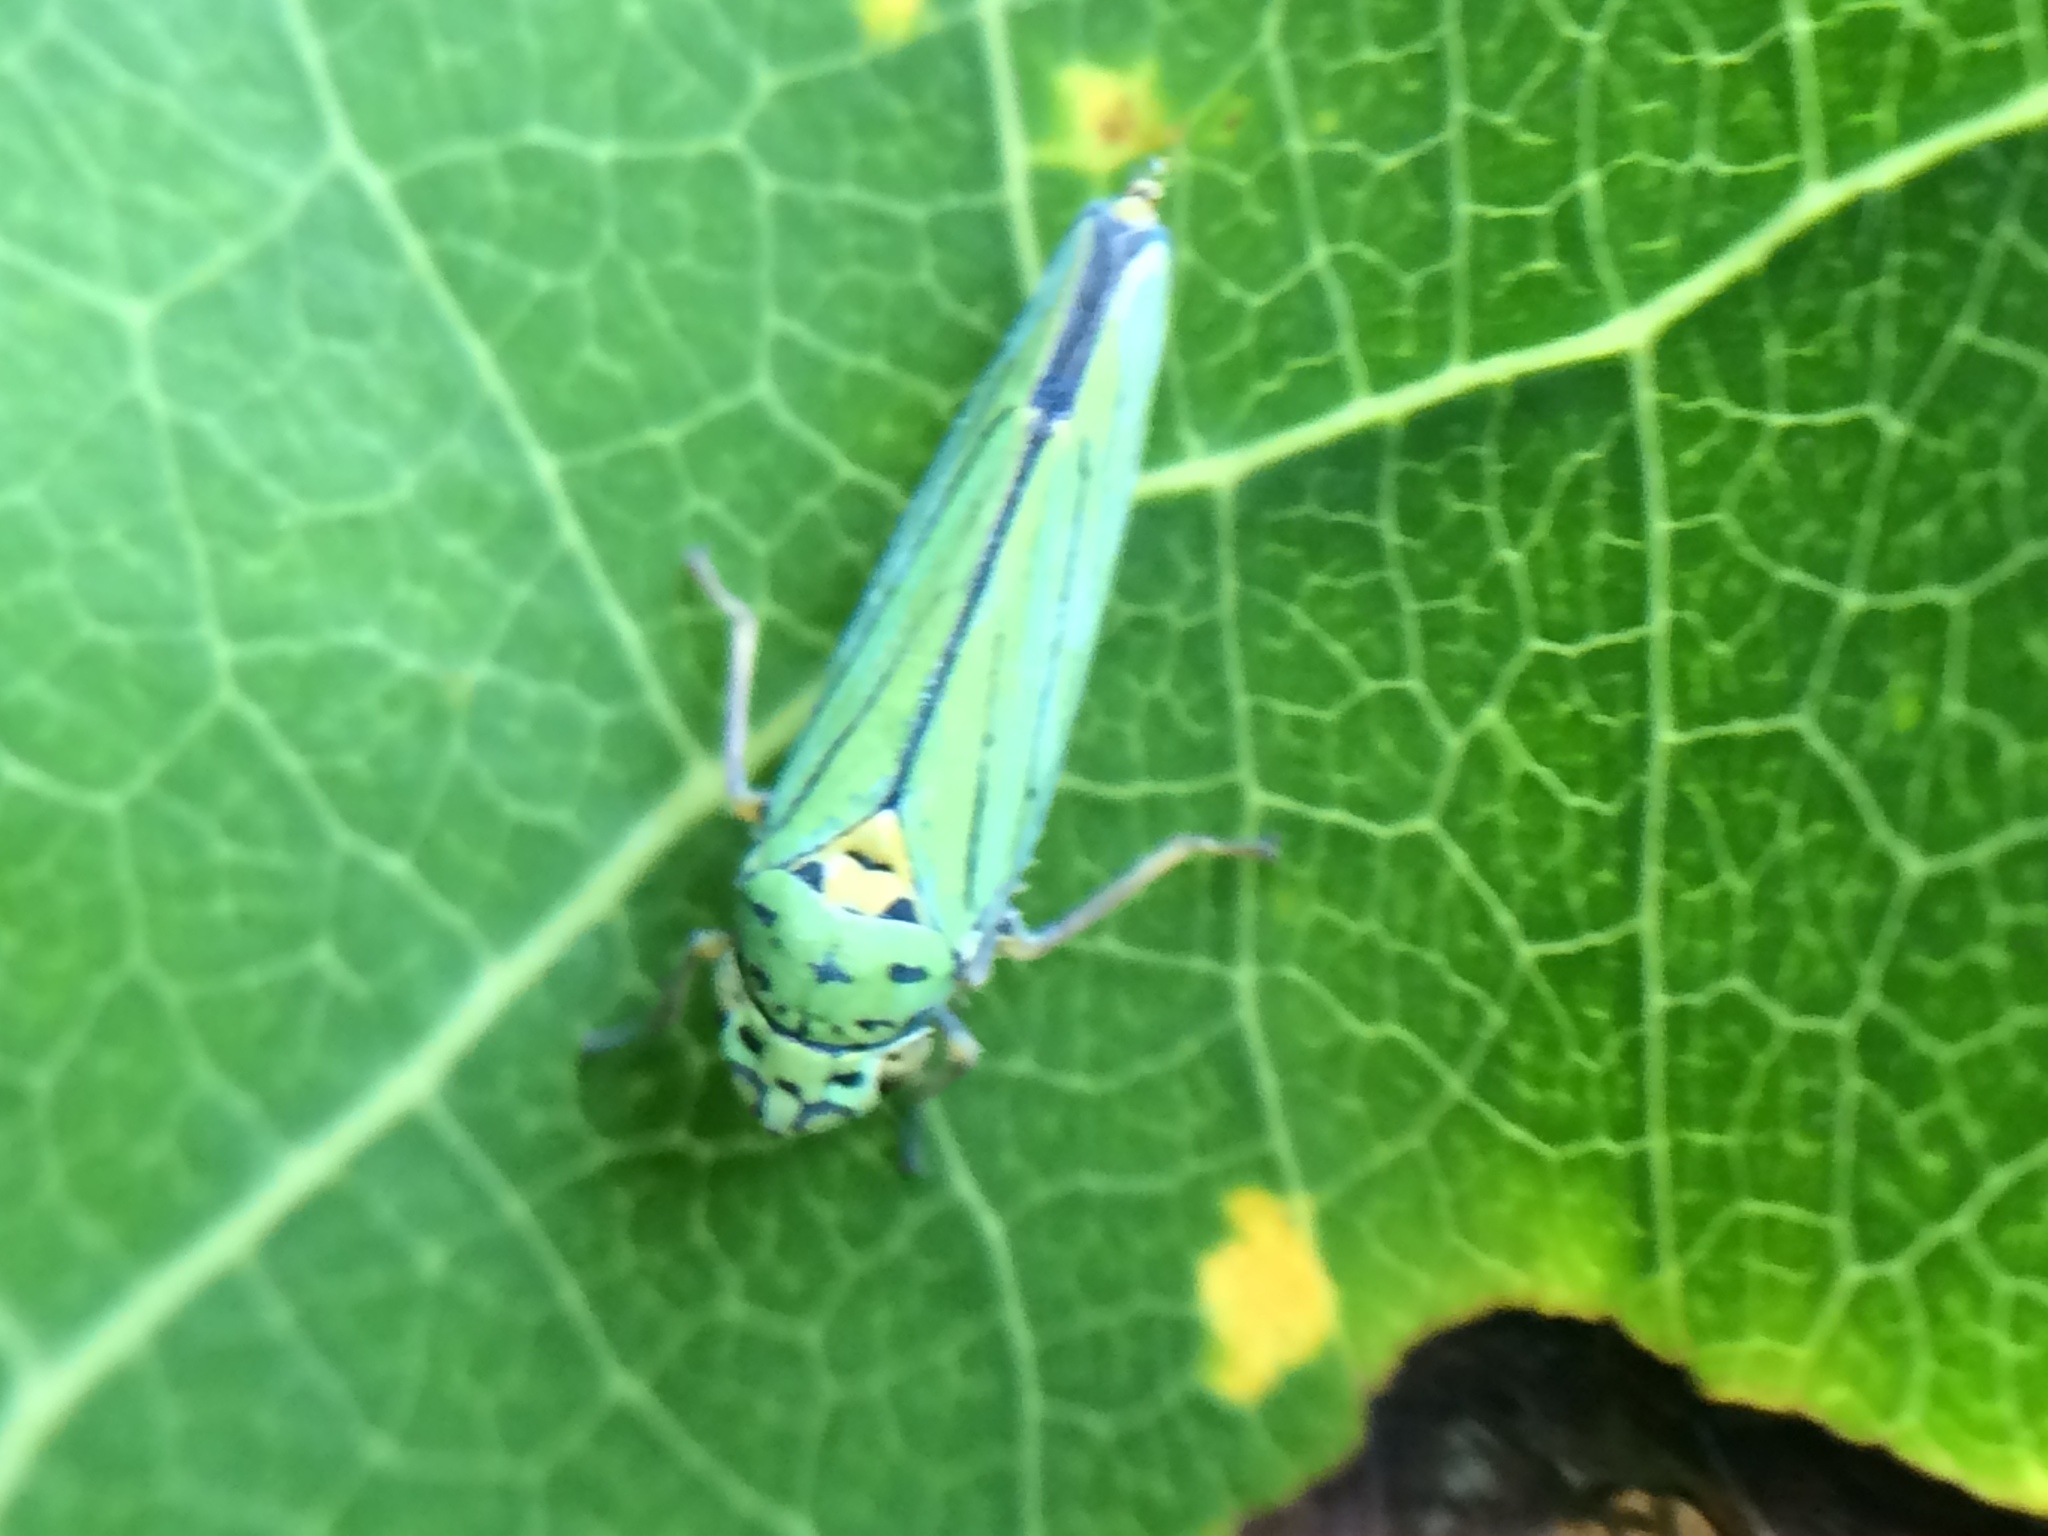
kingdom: Animalia
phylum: Arthropoda
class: Insecta
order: Hemiptera
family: Cicadellidae
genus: Graphocephala
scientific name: Graphocephala atropunctata
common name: Blue-green sharpshooter
